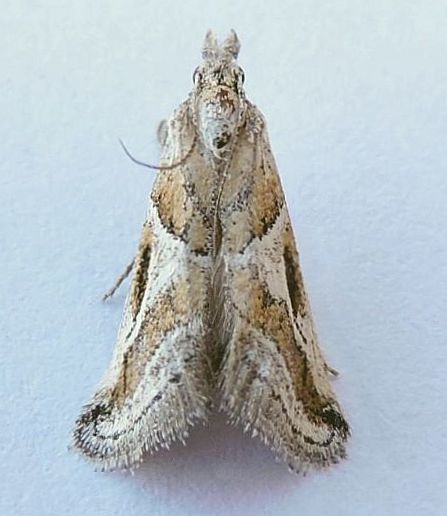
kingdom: Animalia
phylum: Arthropoda
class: Insecta
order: Lepidoptera
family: Pyralidae
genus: Alpheias
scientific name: Alpheias Decaturia pectinalis
